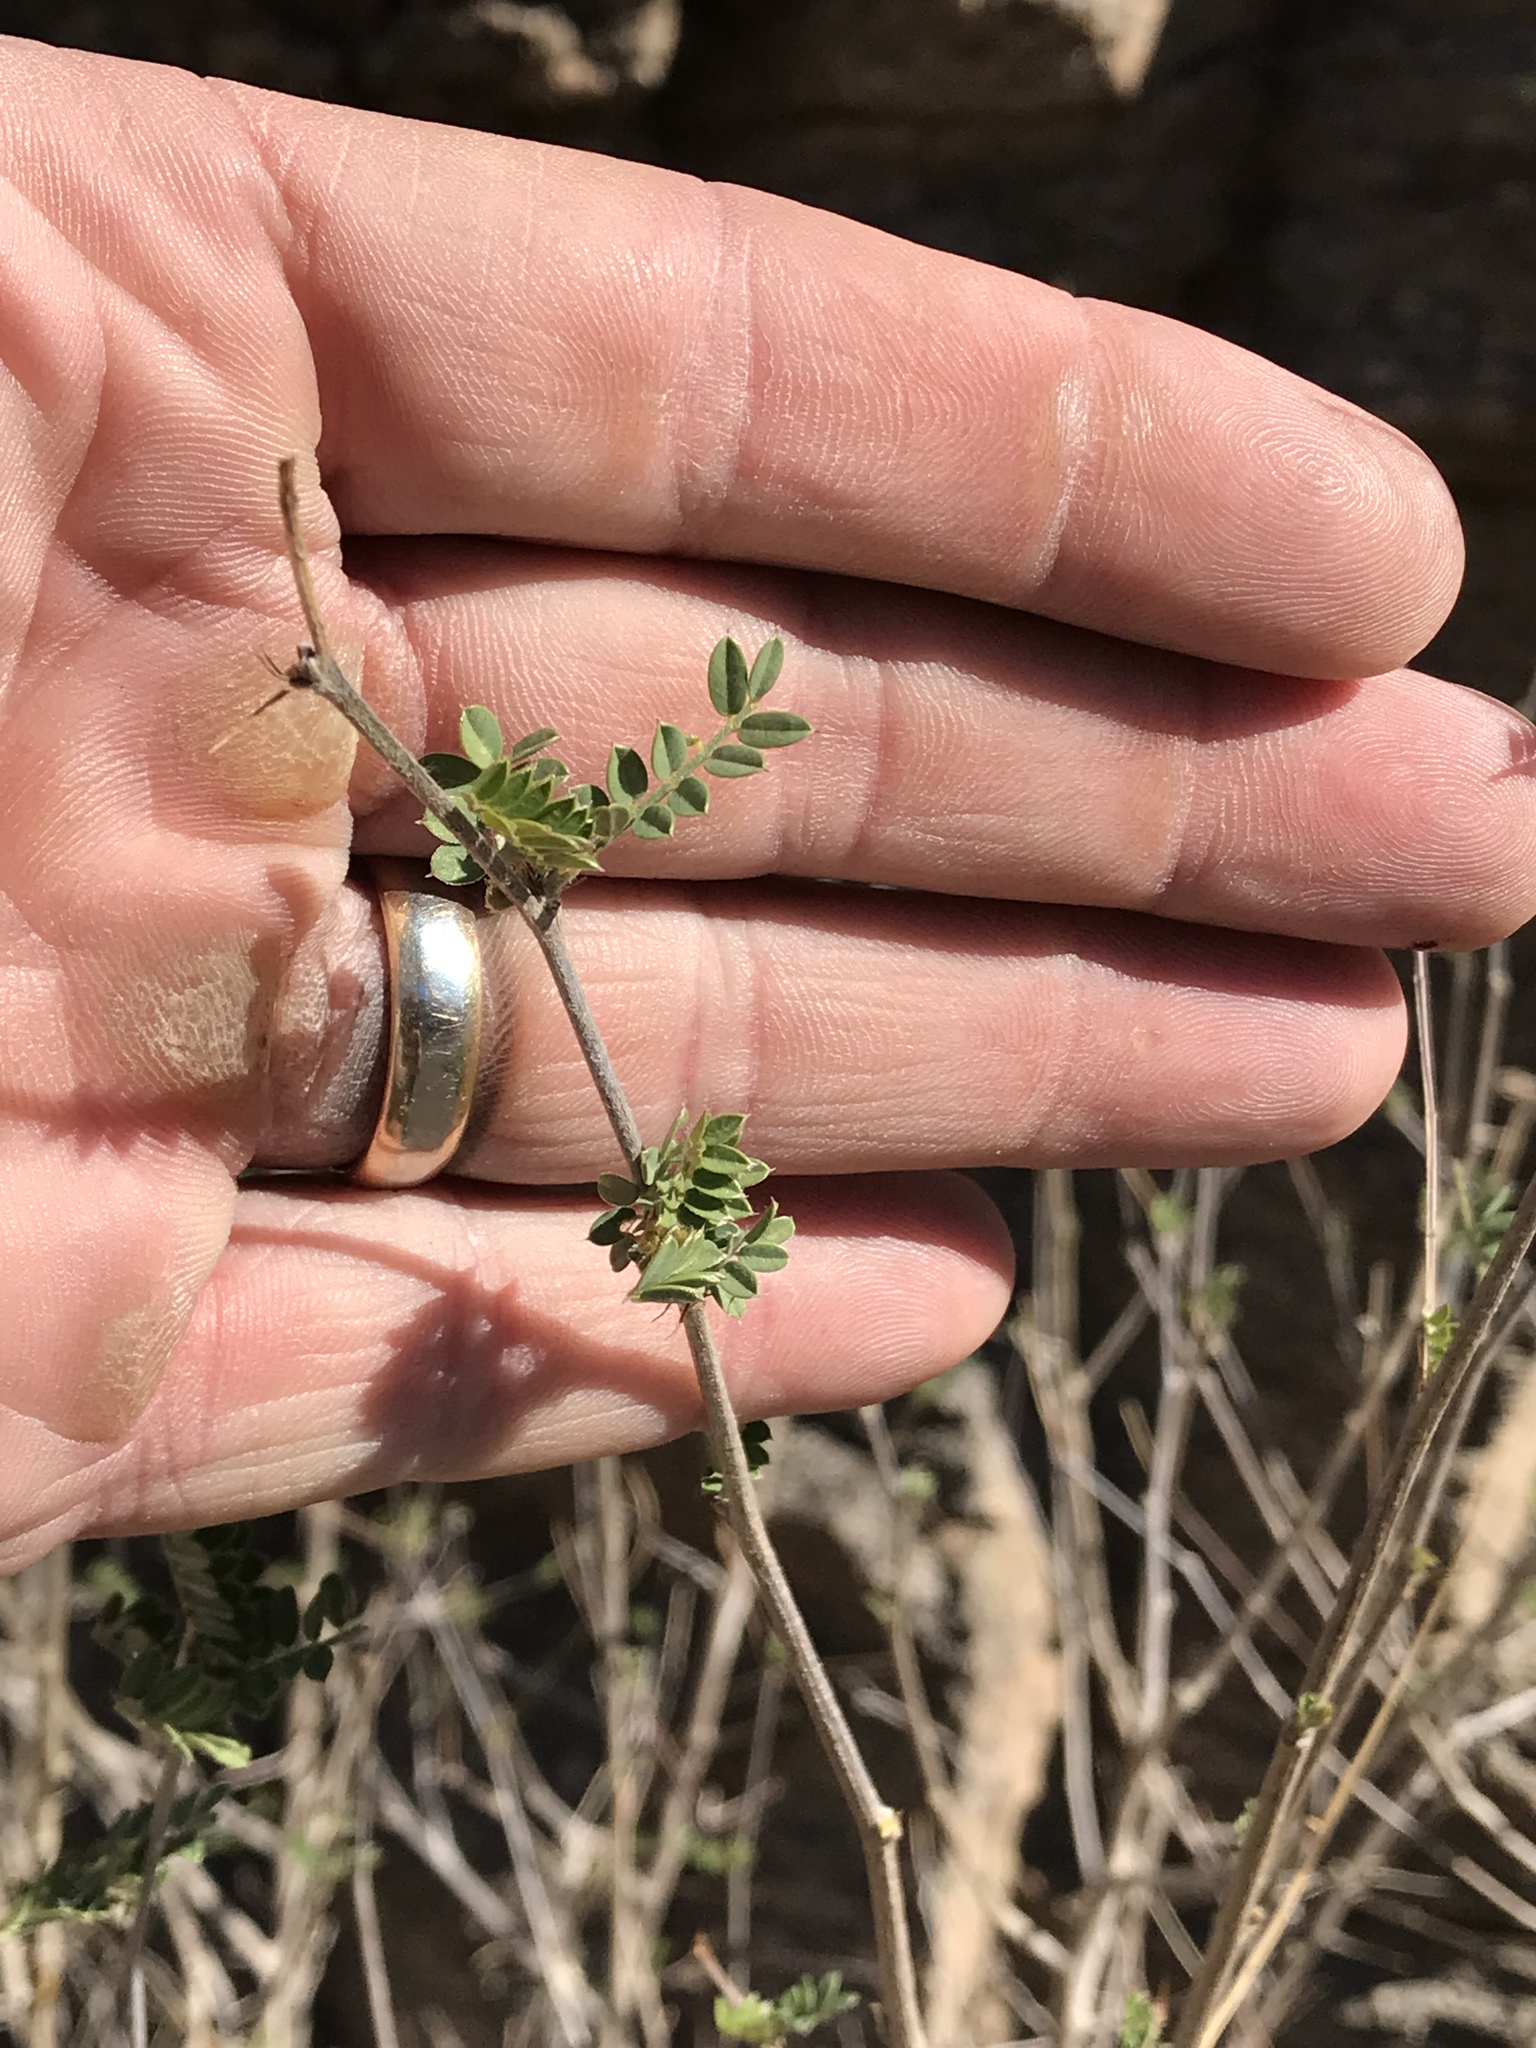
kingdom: Plantae
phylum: Tracheophyta
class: Magnoliopsida
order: Fabales
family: Fabaceae
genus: Coursetia
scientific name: Coursetia glandulosa
